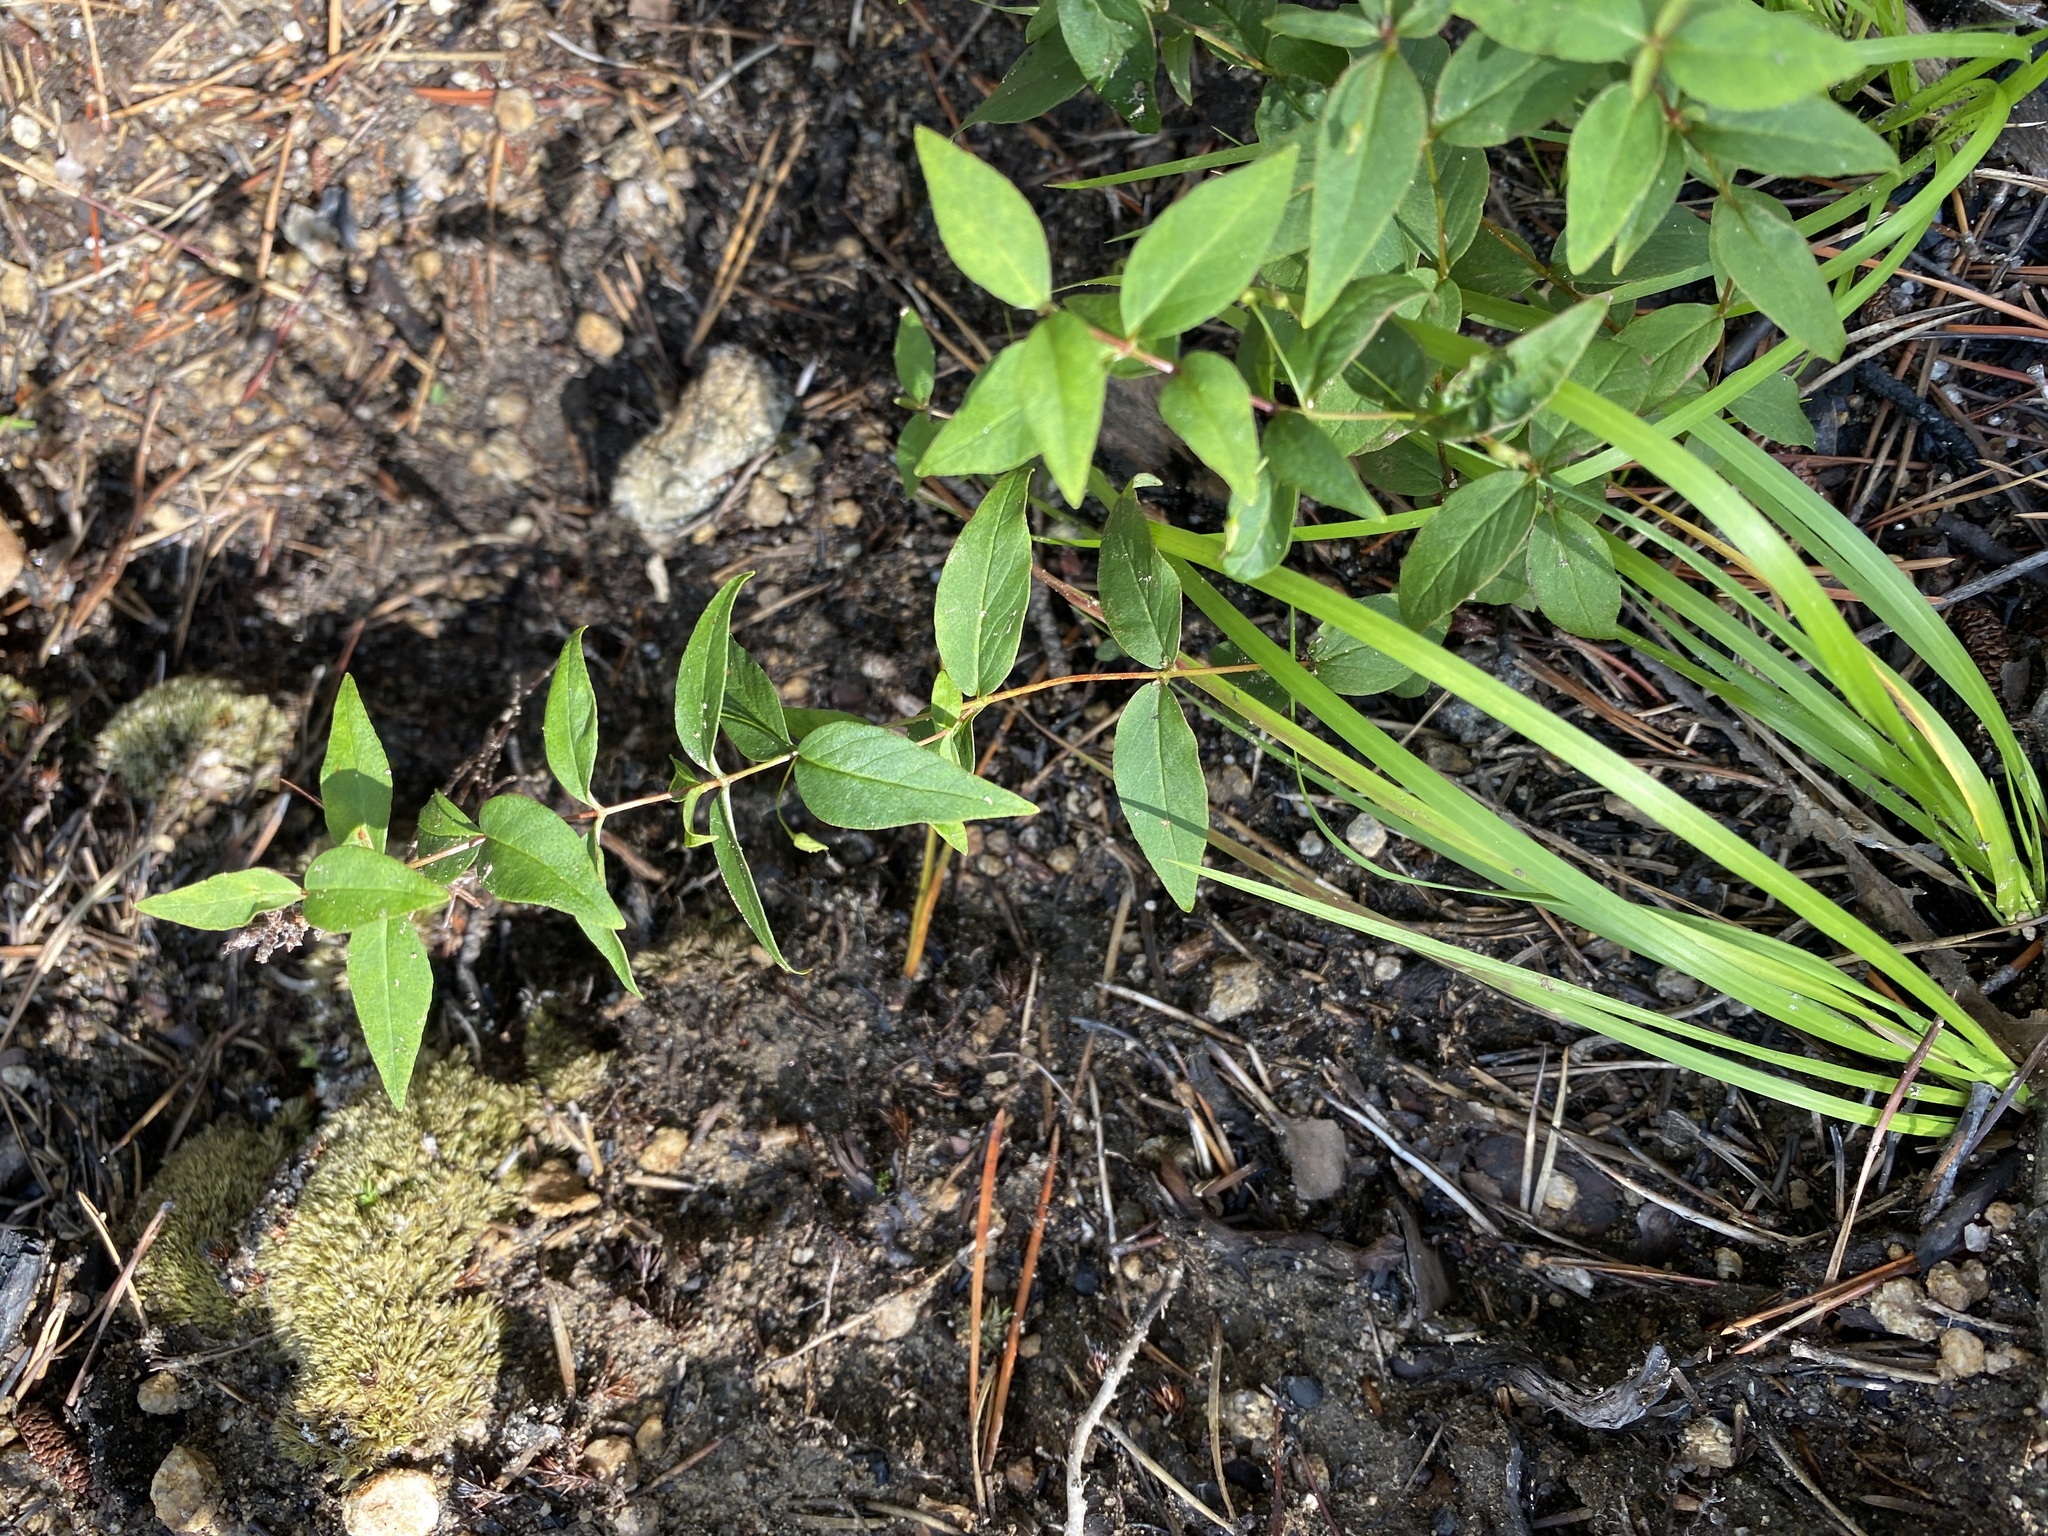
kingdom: Plantae
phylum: Tracheophyta
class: Magnoliopsida
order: Lamiales
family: Lamiaceae
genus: Cunila
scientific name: Cunila origanoides
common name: American dittany
